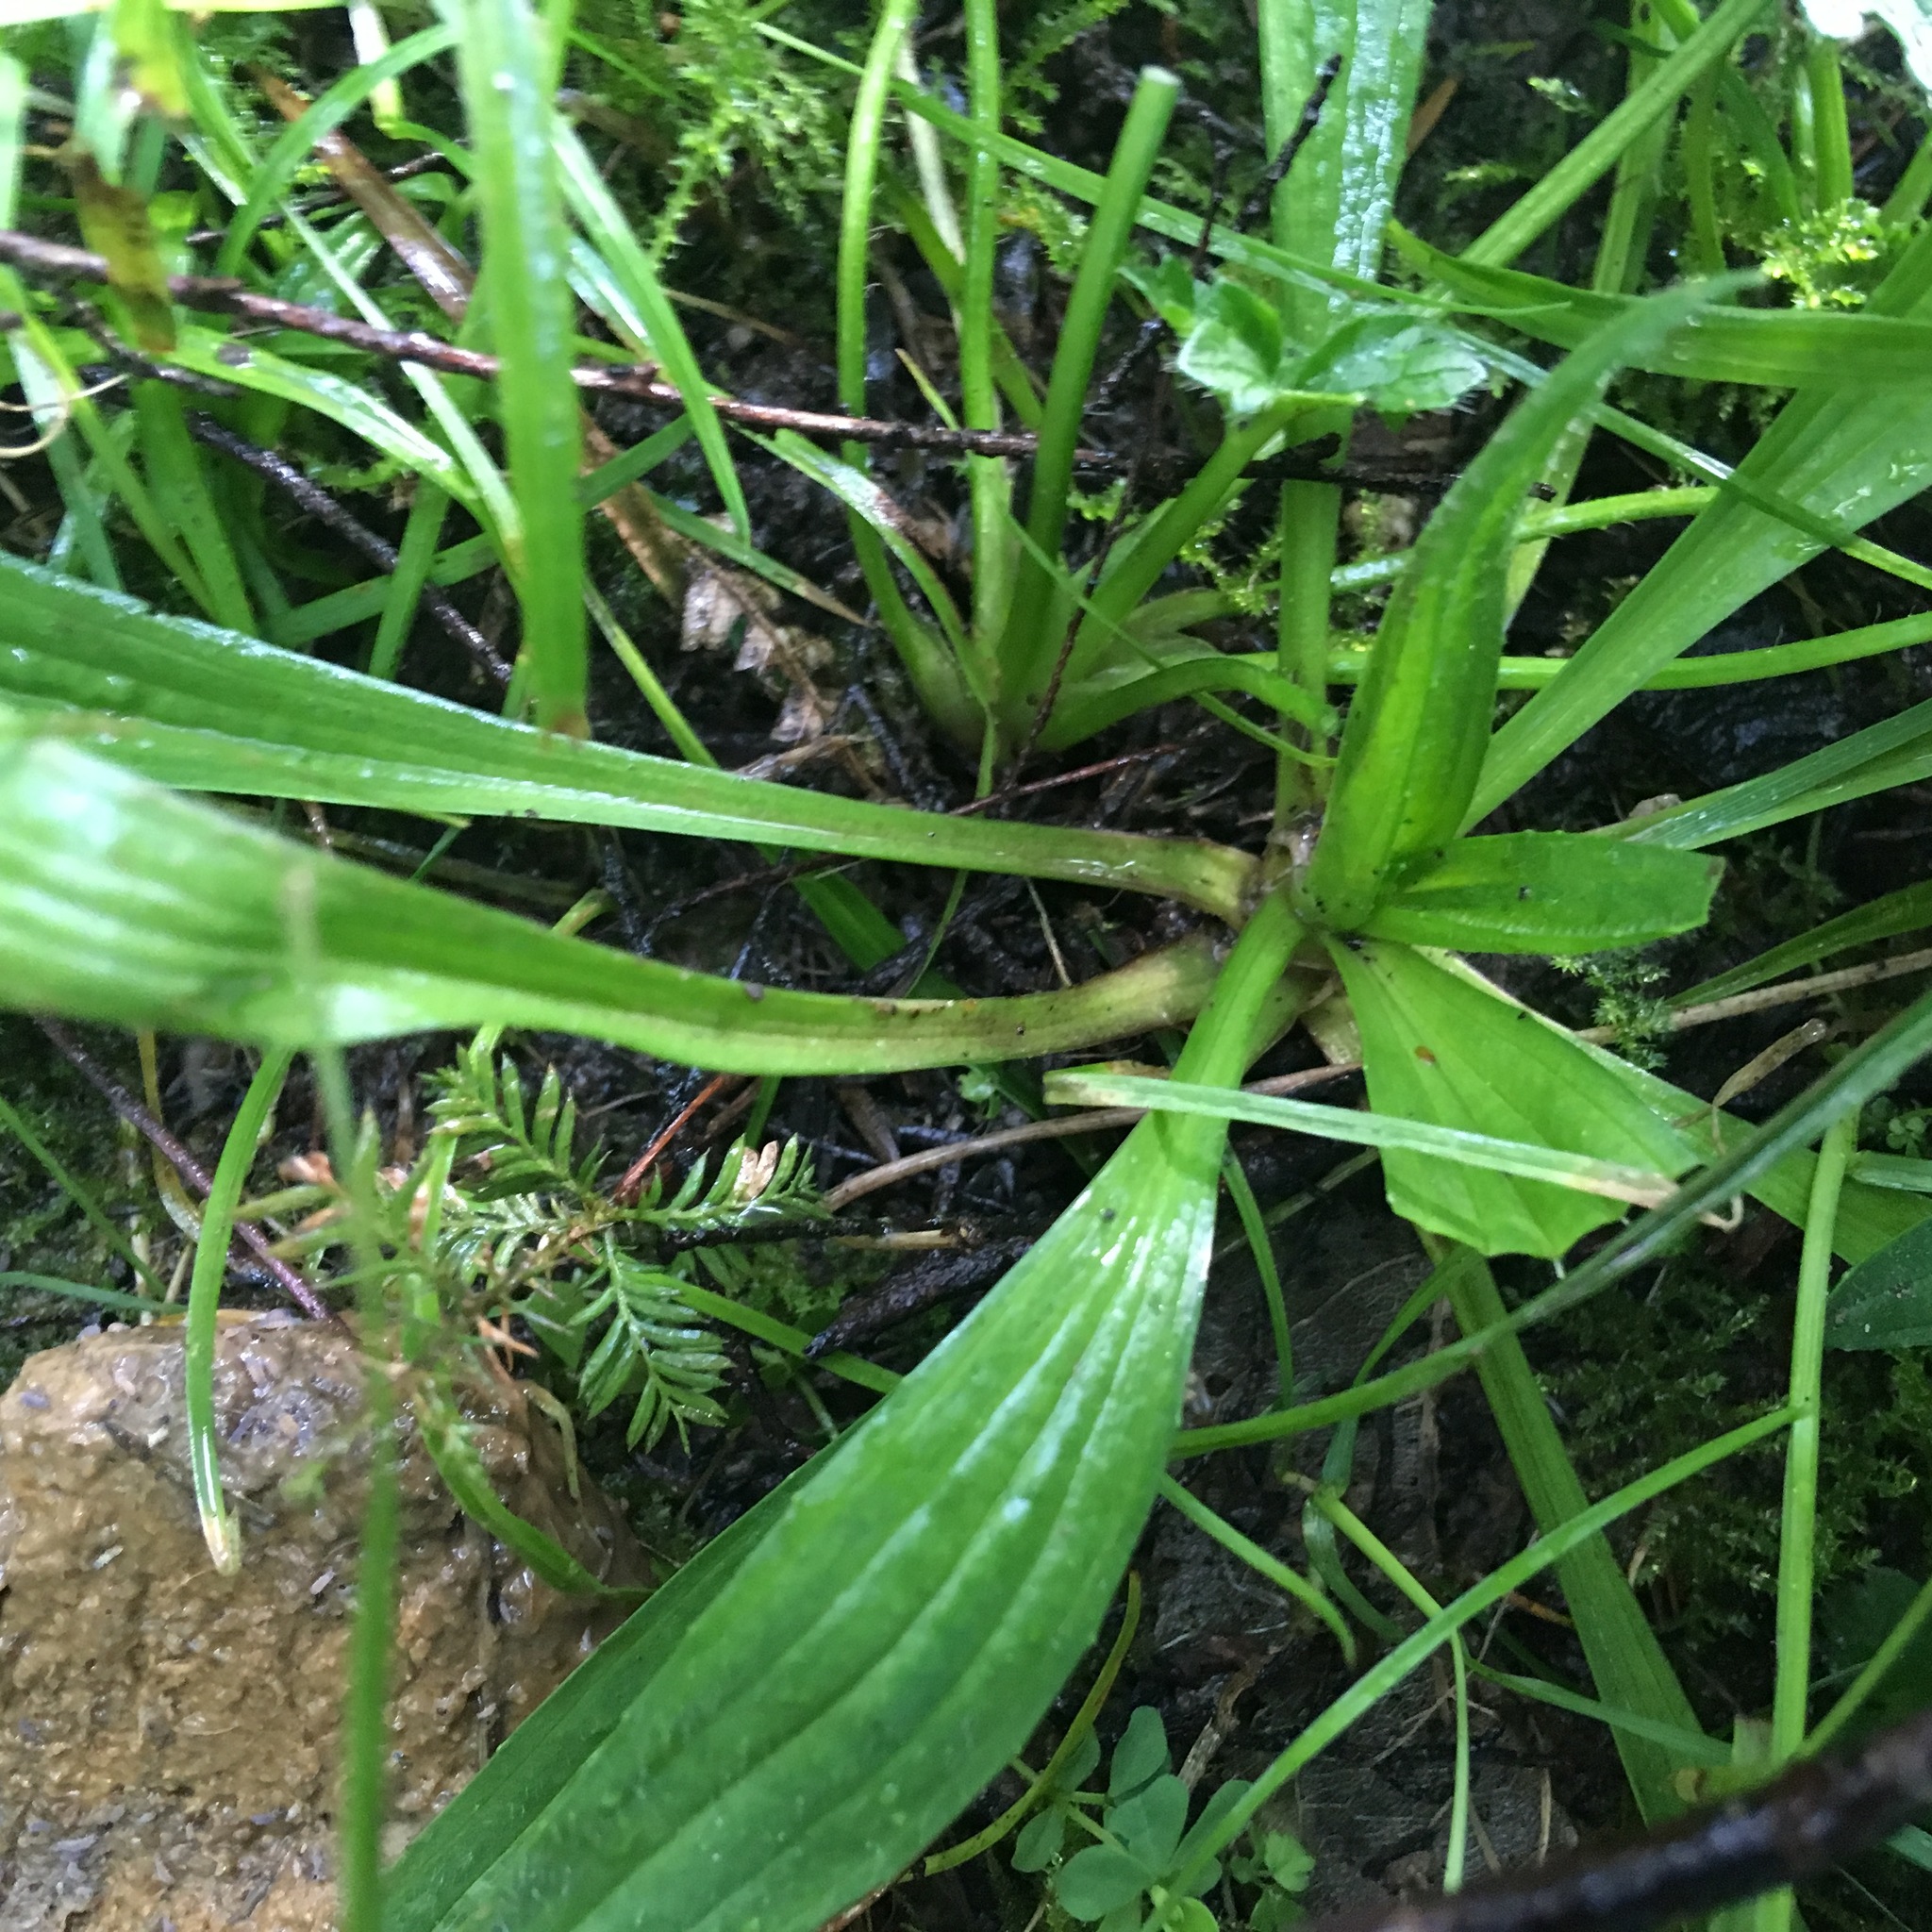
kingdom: Plantae
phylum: Tracheophyta
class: Magnoliopsida
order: Lamiales
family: Plantaginaceae
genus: Plantago
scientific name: Plantago lanceolata
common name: Ribwort plantain
